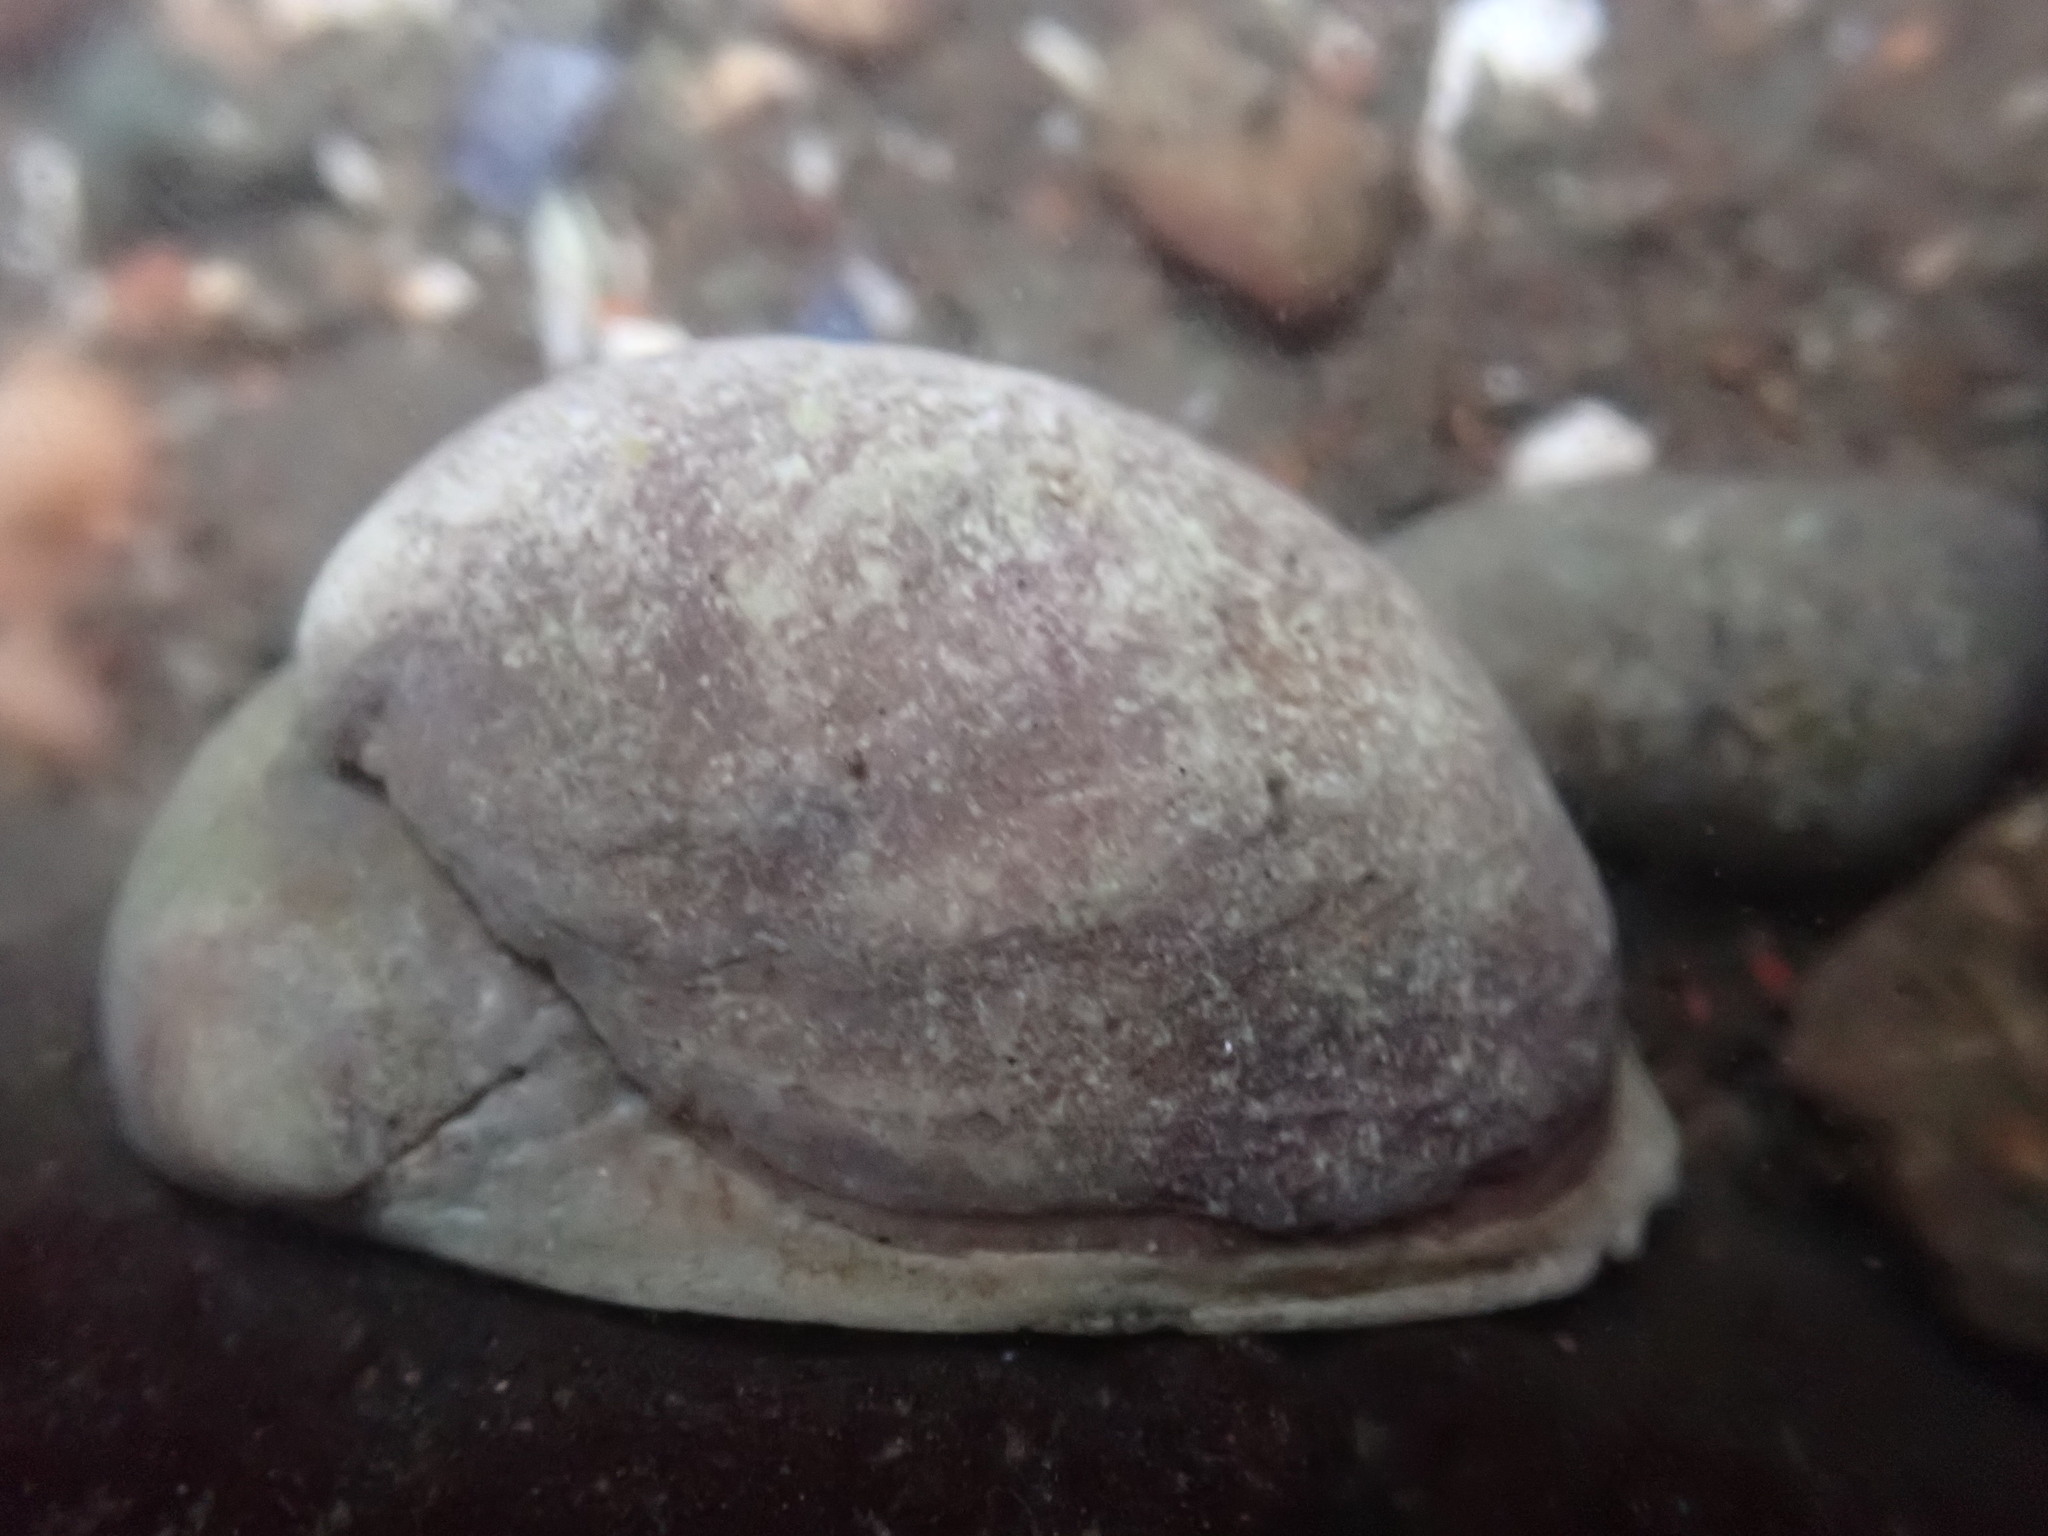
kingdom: Animalia
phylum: Mollusca
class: Gastropoda
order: Littorinimorpha
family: Calyptraeidae
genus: Crepidula
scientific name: Crepidula fornicata
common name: Slipper limpet
